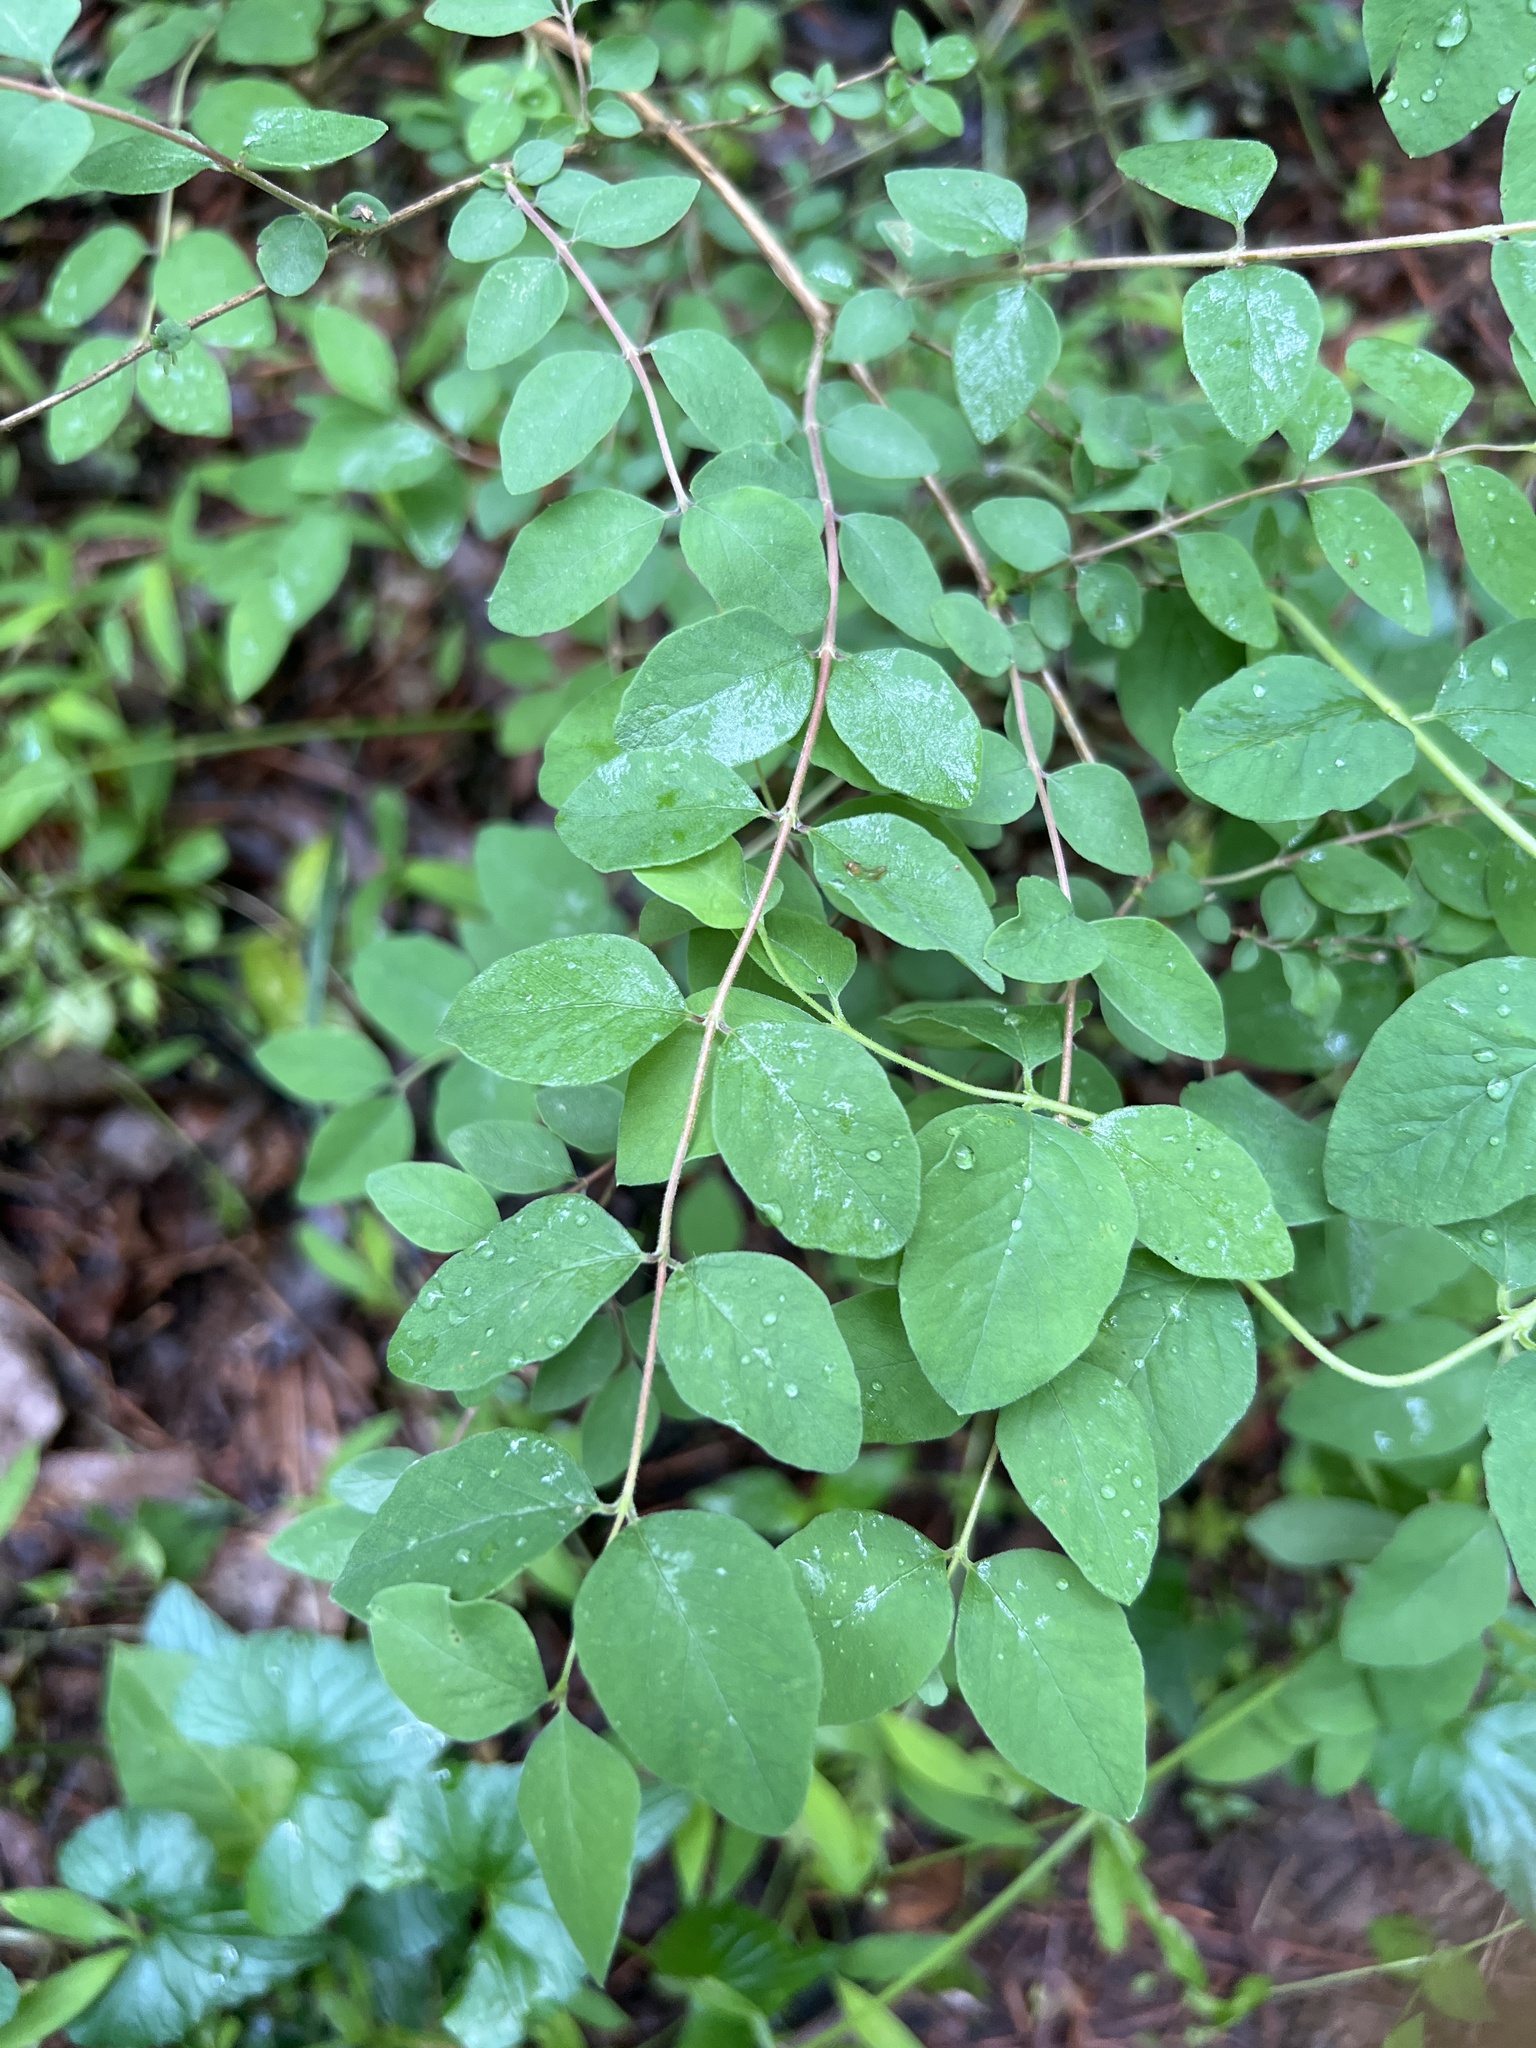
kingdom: Plantae
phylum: Tracheophyta
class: Magnoliopsida
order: Dipsacales
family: Caprifoliaceae
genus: Symphoricarpos
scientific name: Symphoricarpos orbiculatus
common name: Coralberry
